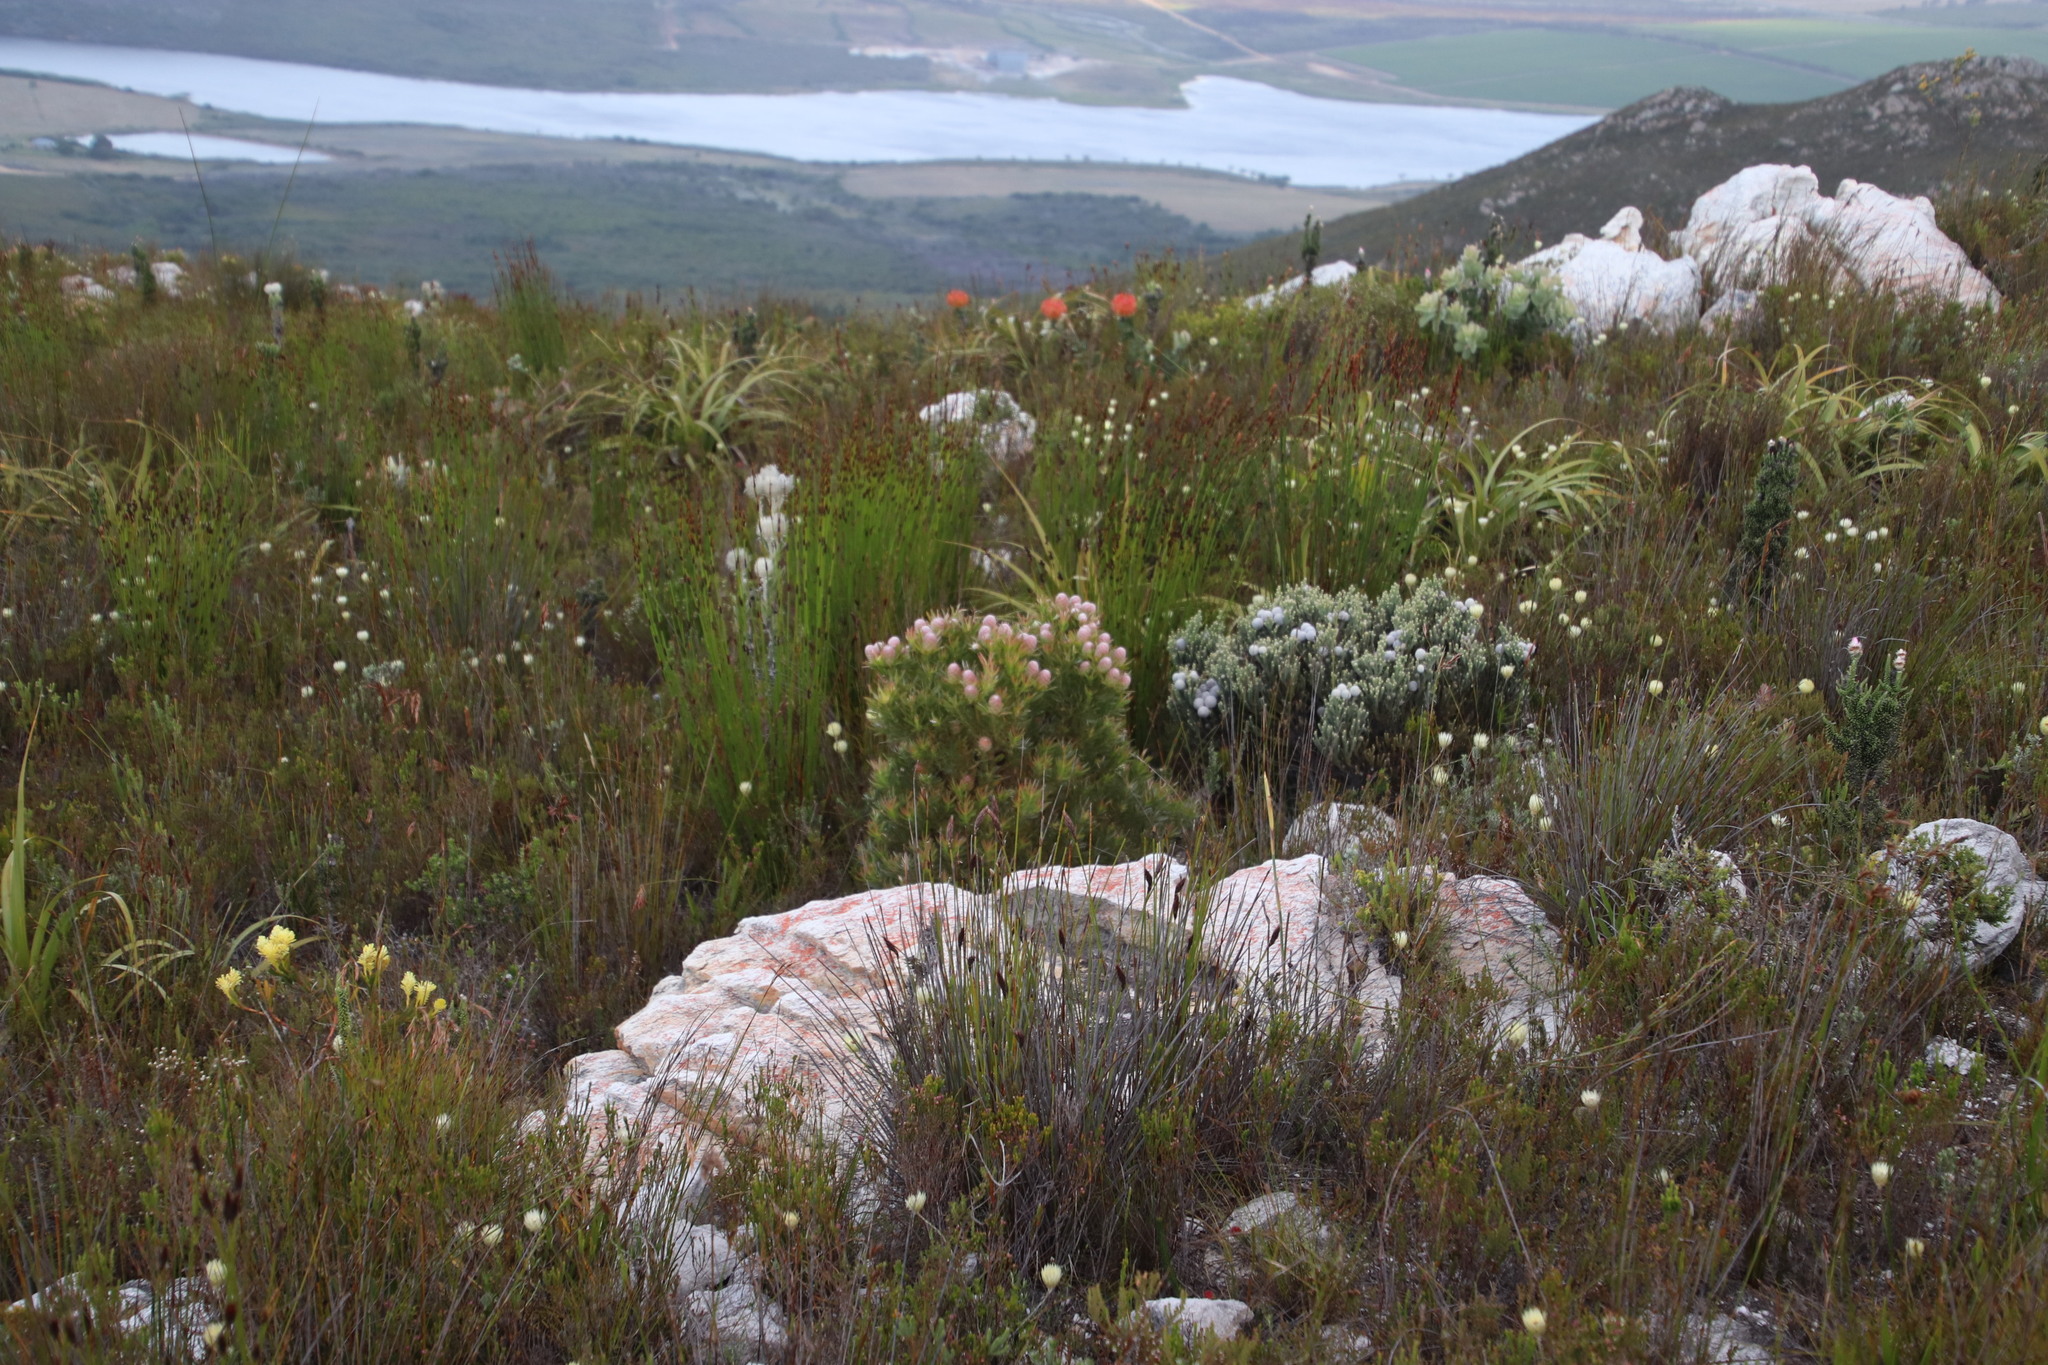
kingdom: Plantae
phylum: Tracheophyta
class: Magnoliopsida
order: Proteales
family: Proteaceae
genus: Leucadendron
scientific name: Leucadendron xanthoconus
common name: Sickle-leaf conebush
